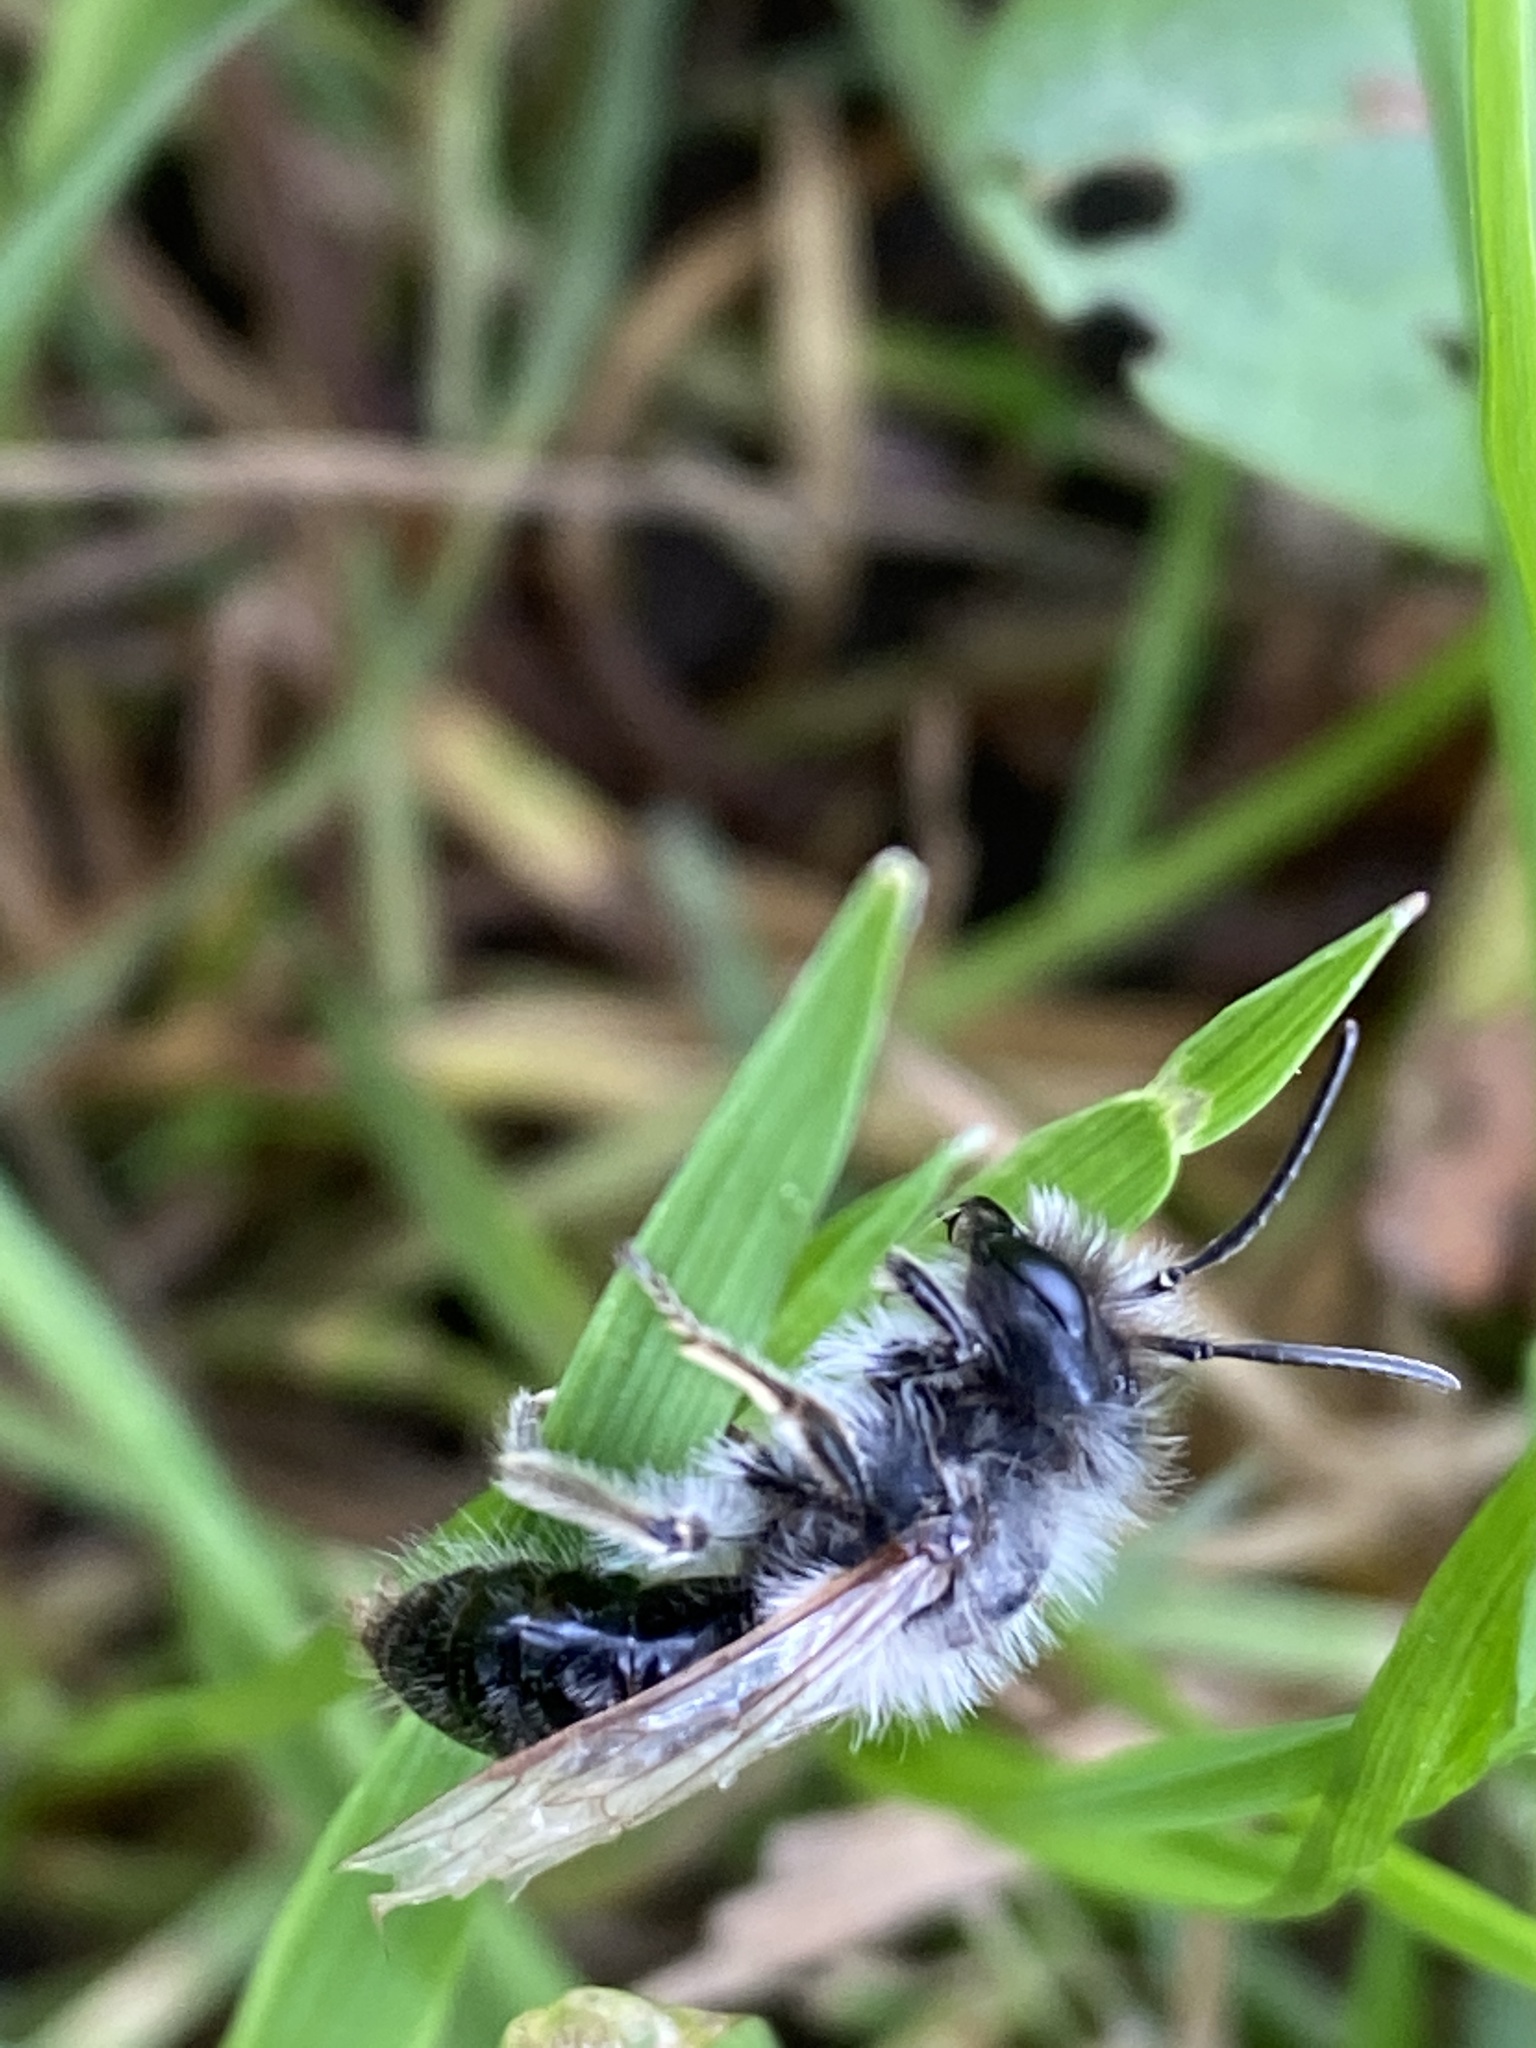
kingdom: Animalia
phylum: Arthropoda
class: Insecta
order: Hymenoptera
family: Andrenidae
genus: Andrena
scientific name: Andrena vaga
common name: Grey-backed mining bee
